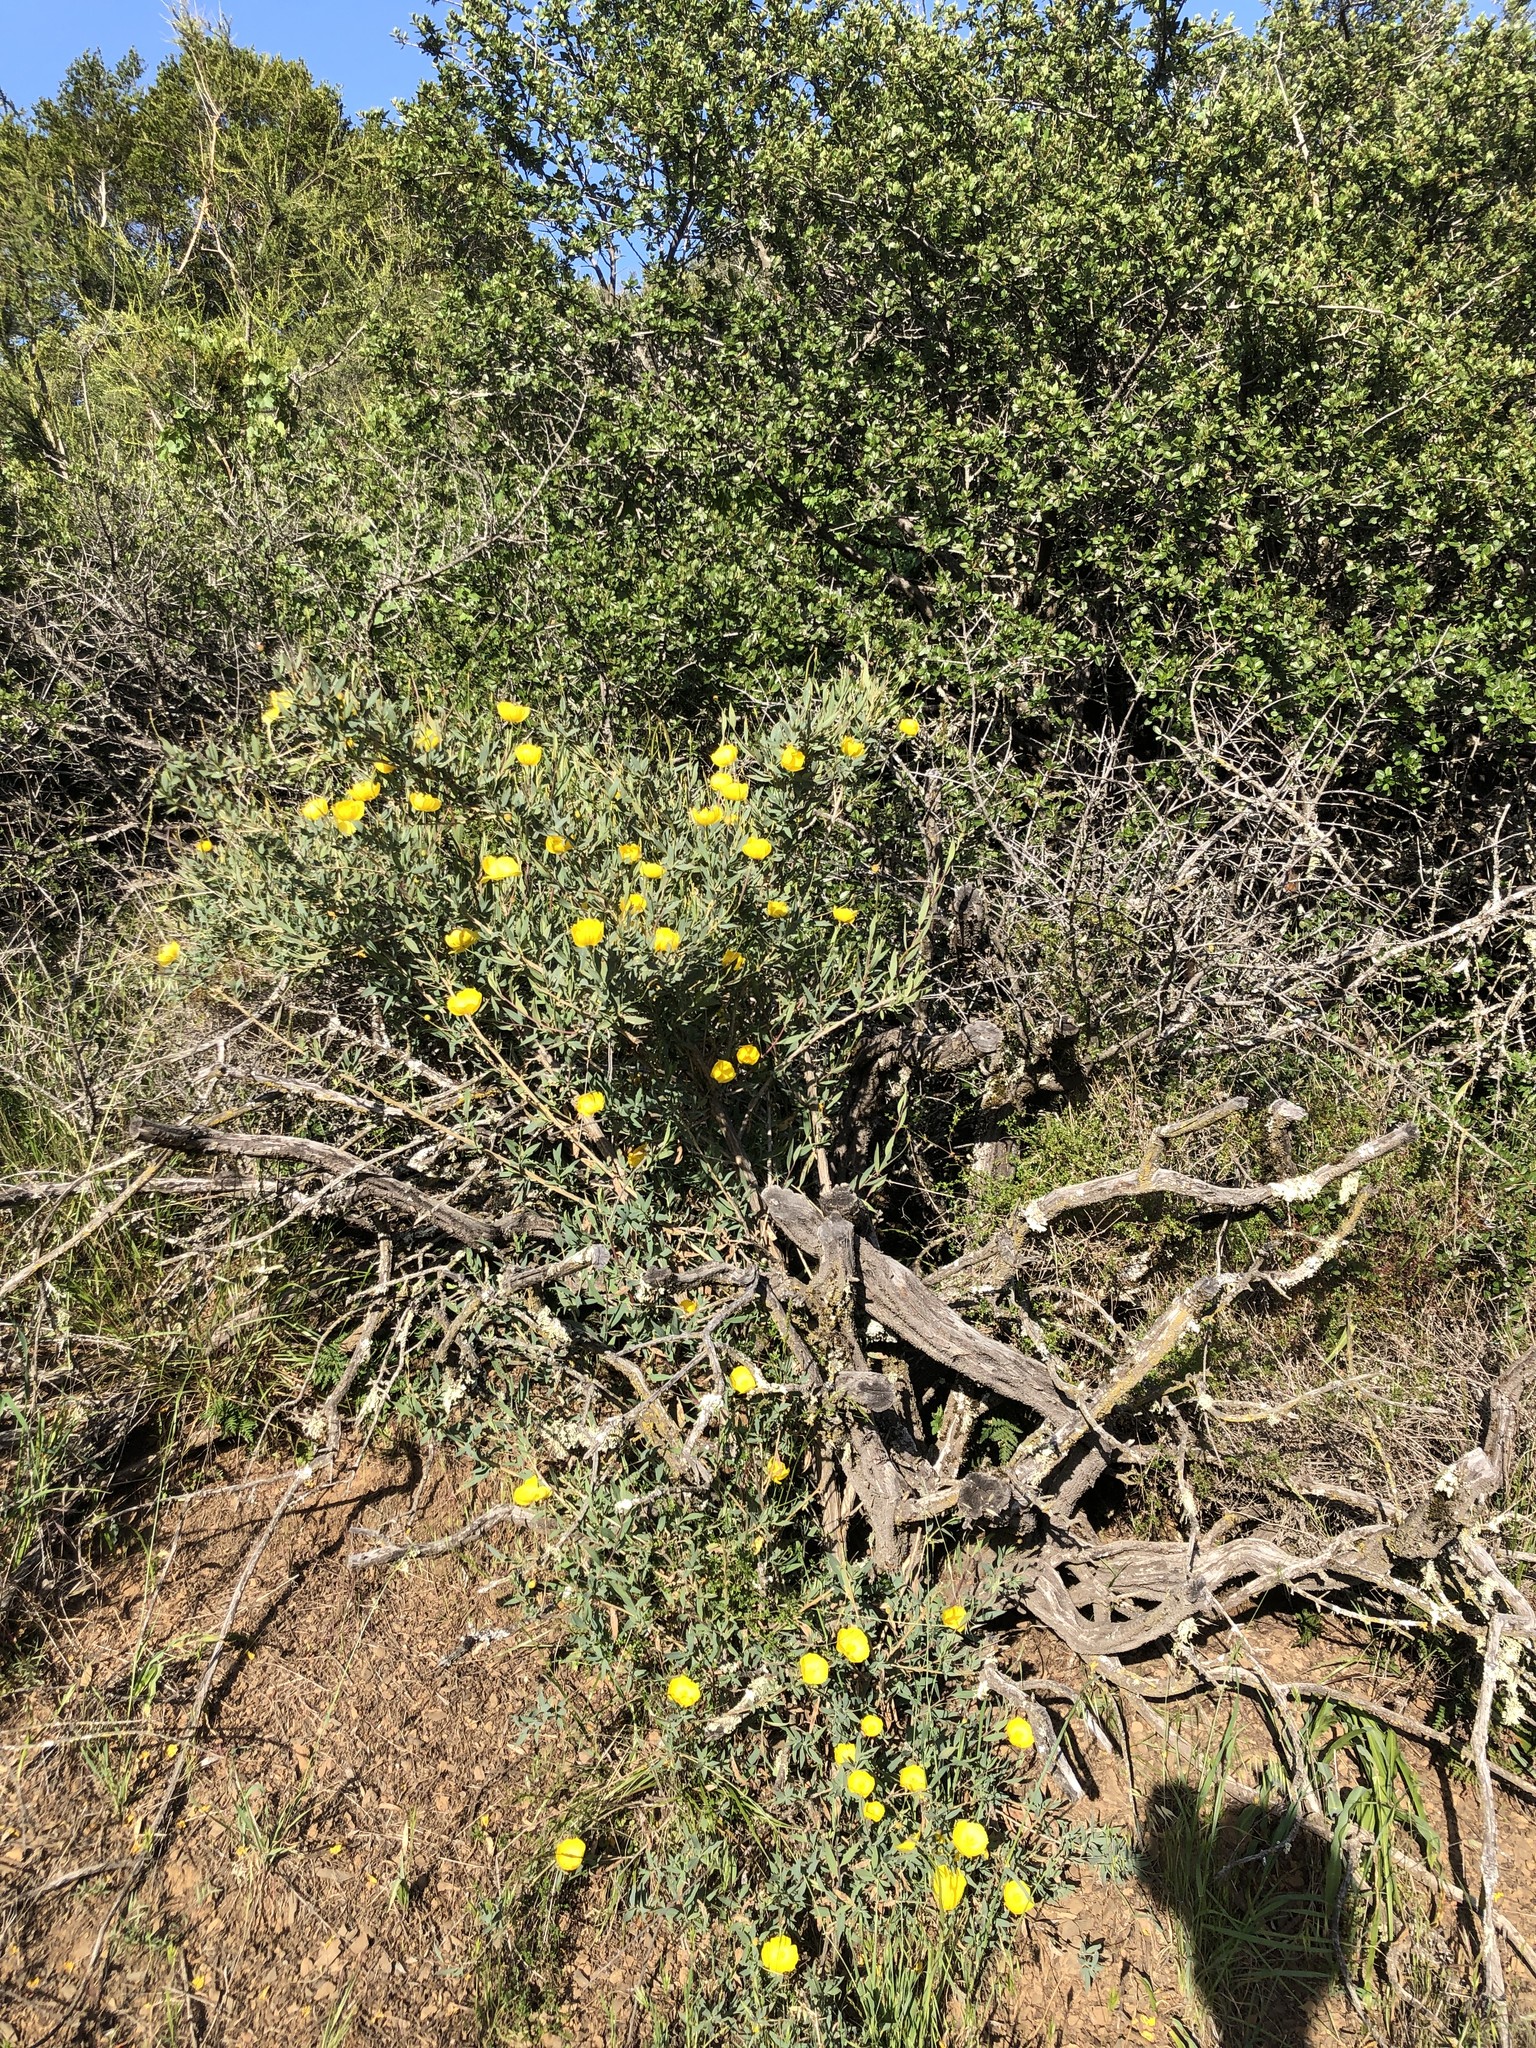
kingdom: Plantae
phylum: Tracheophyta
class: Magnoliopsida
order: Ranunculales
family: Papaveraceae
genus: Dendromecon
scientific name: Dendromecon rigida
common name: Tree poppy
